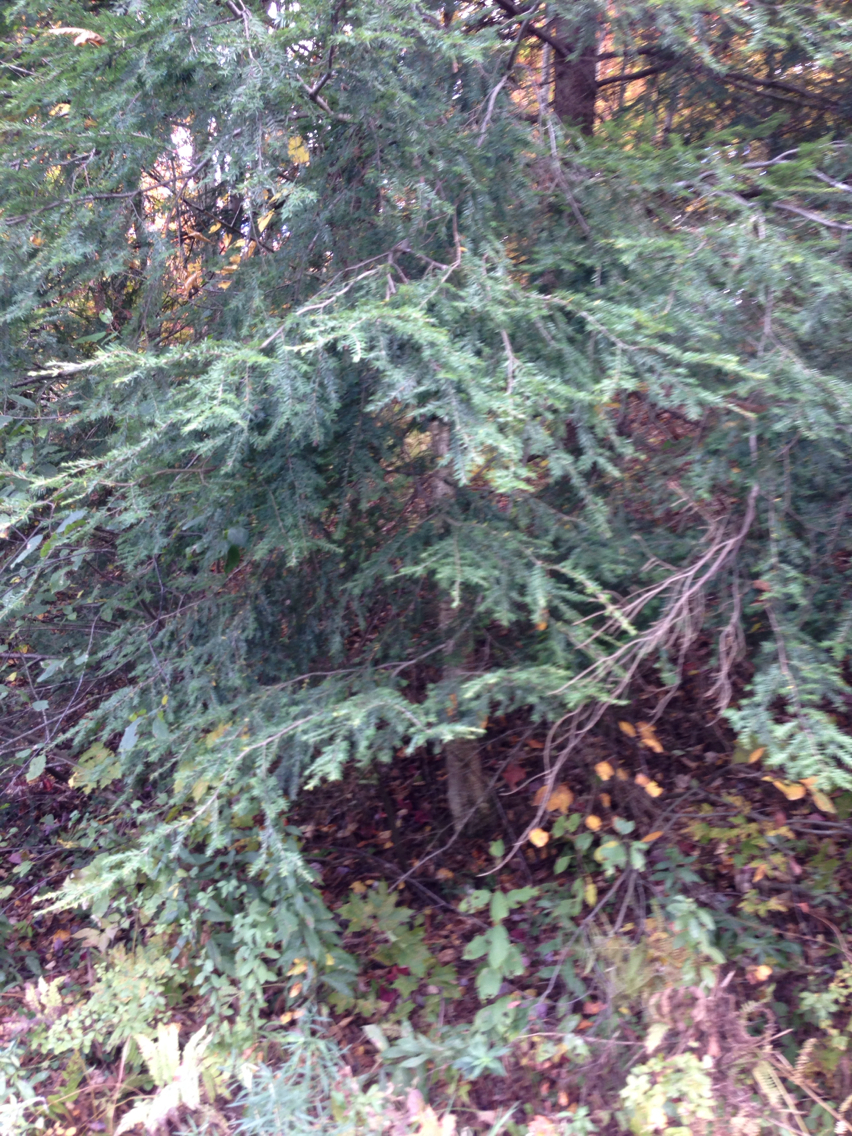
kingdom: Plantae
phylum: Tracheophyta
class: Pinopsida
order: Pinales
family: Pinaceae
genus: Tsuga
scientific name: Tsuga canadensis
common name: Eastern hemlock
